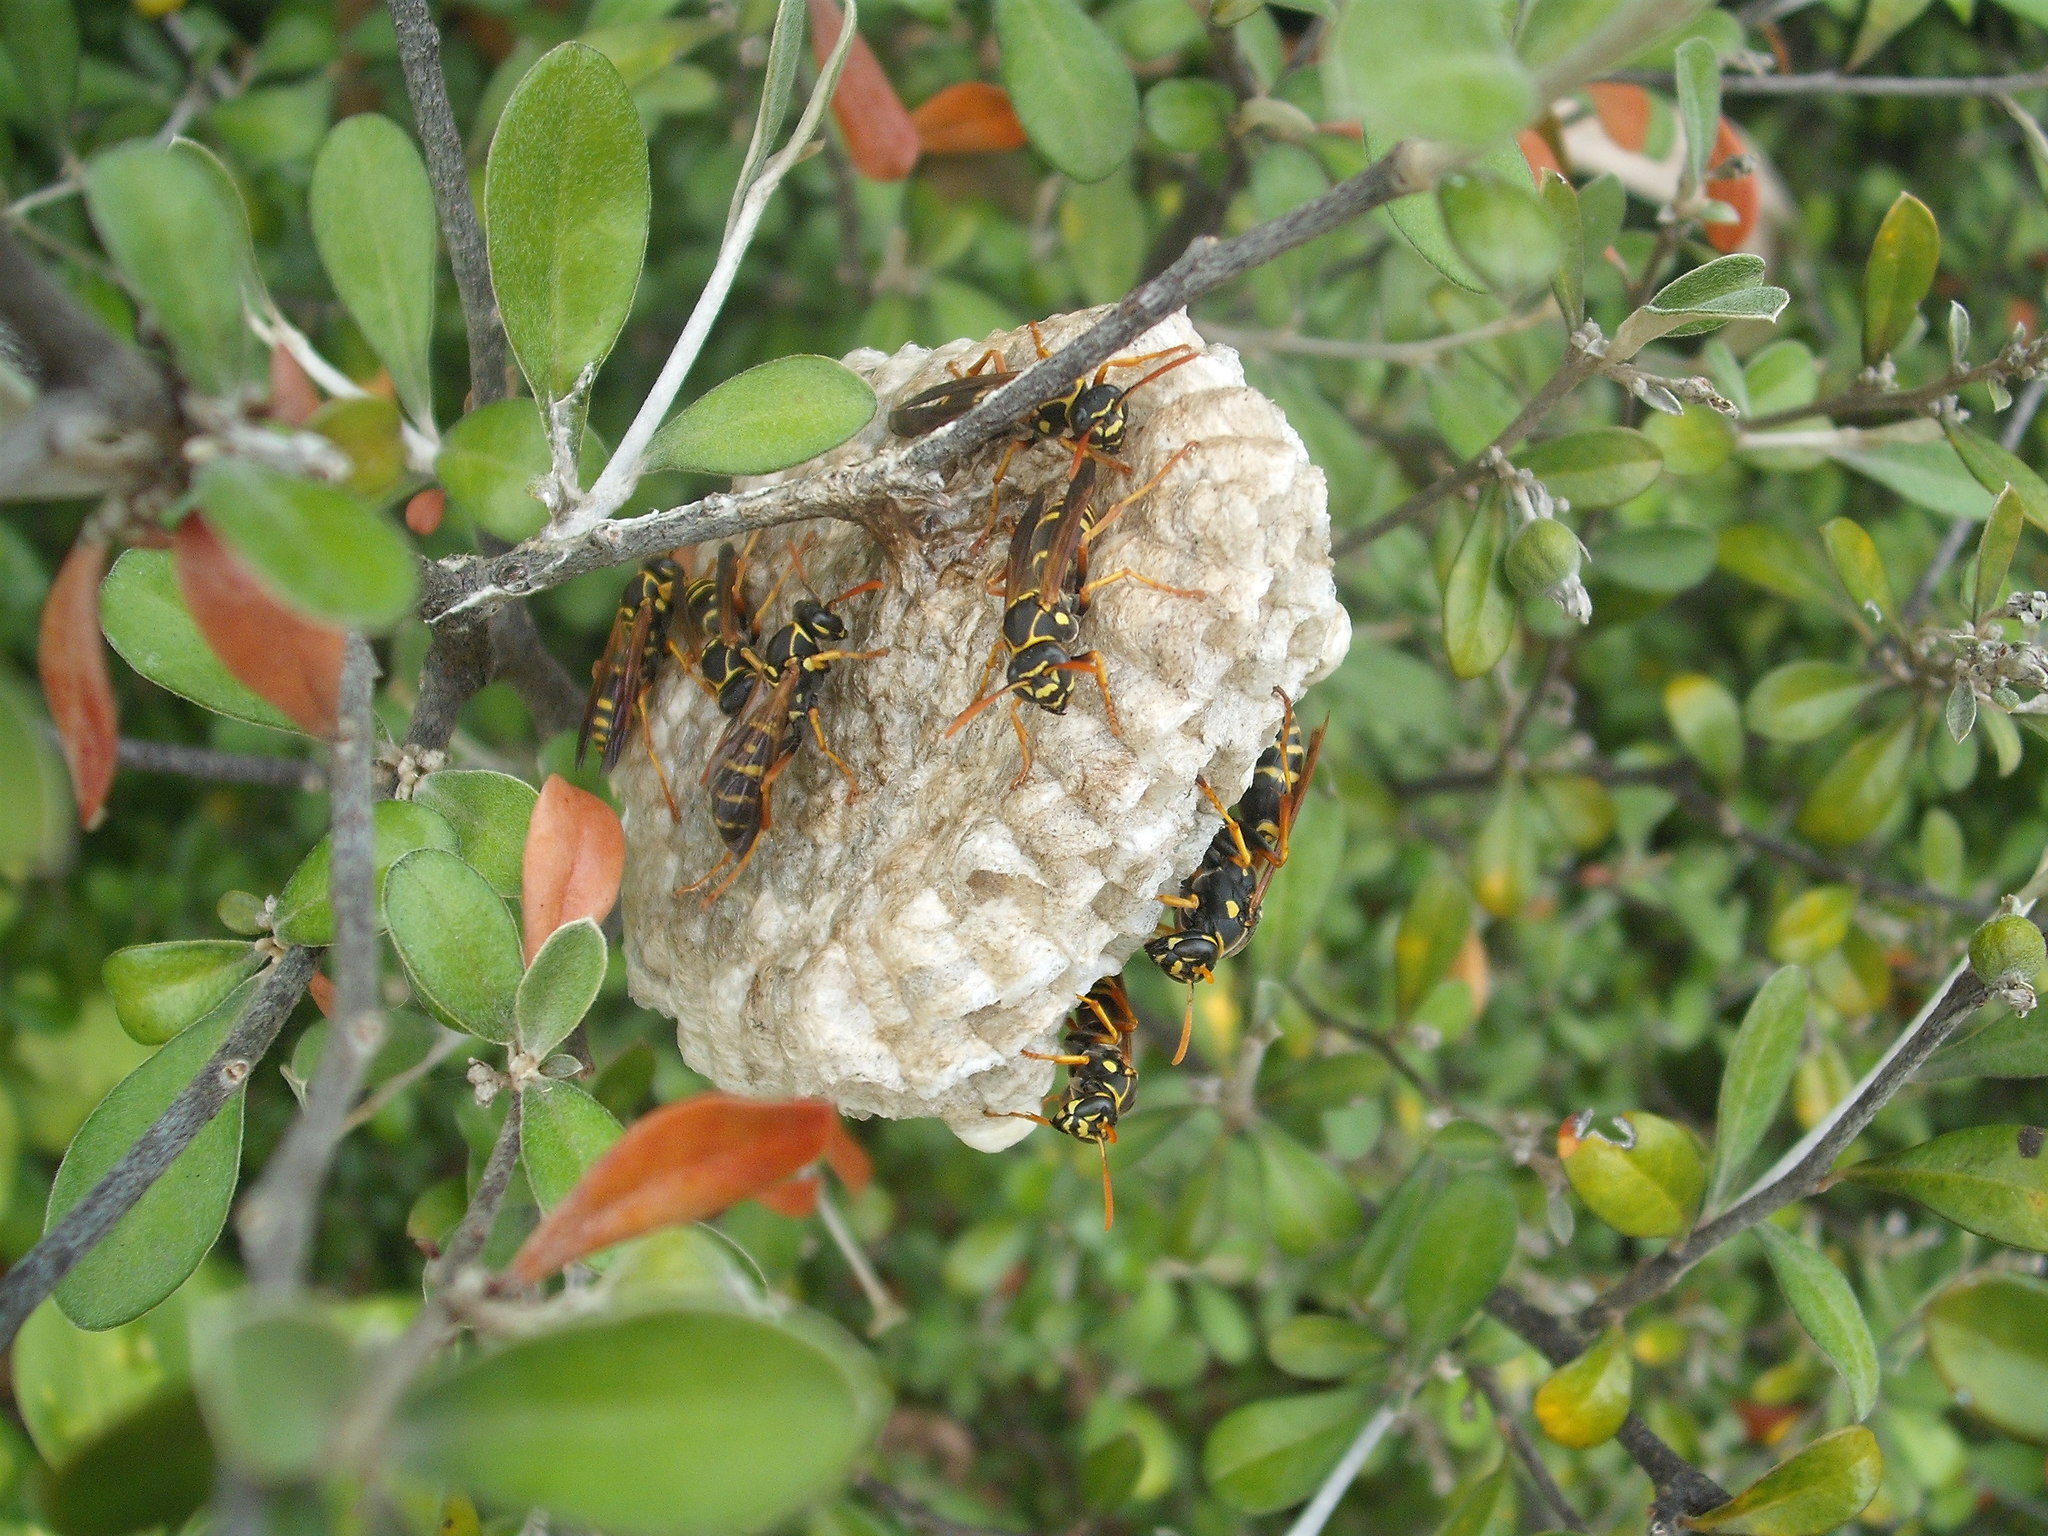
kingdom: Animalia
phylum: Arthropoda
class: Insecta
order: Hymenoptera
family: Eumenidae
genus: Polistes
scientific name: Polistes chinensis
